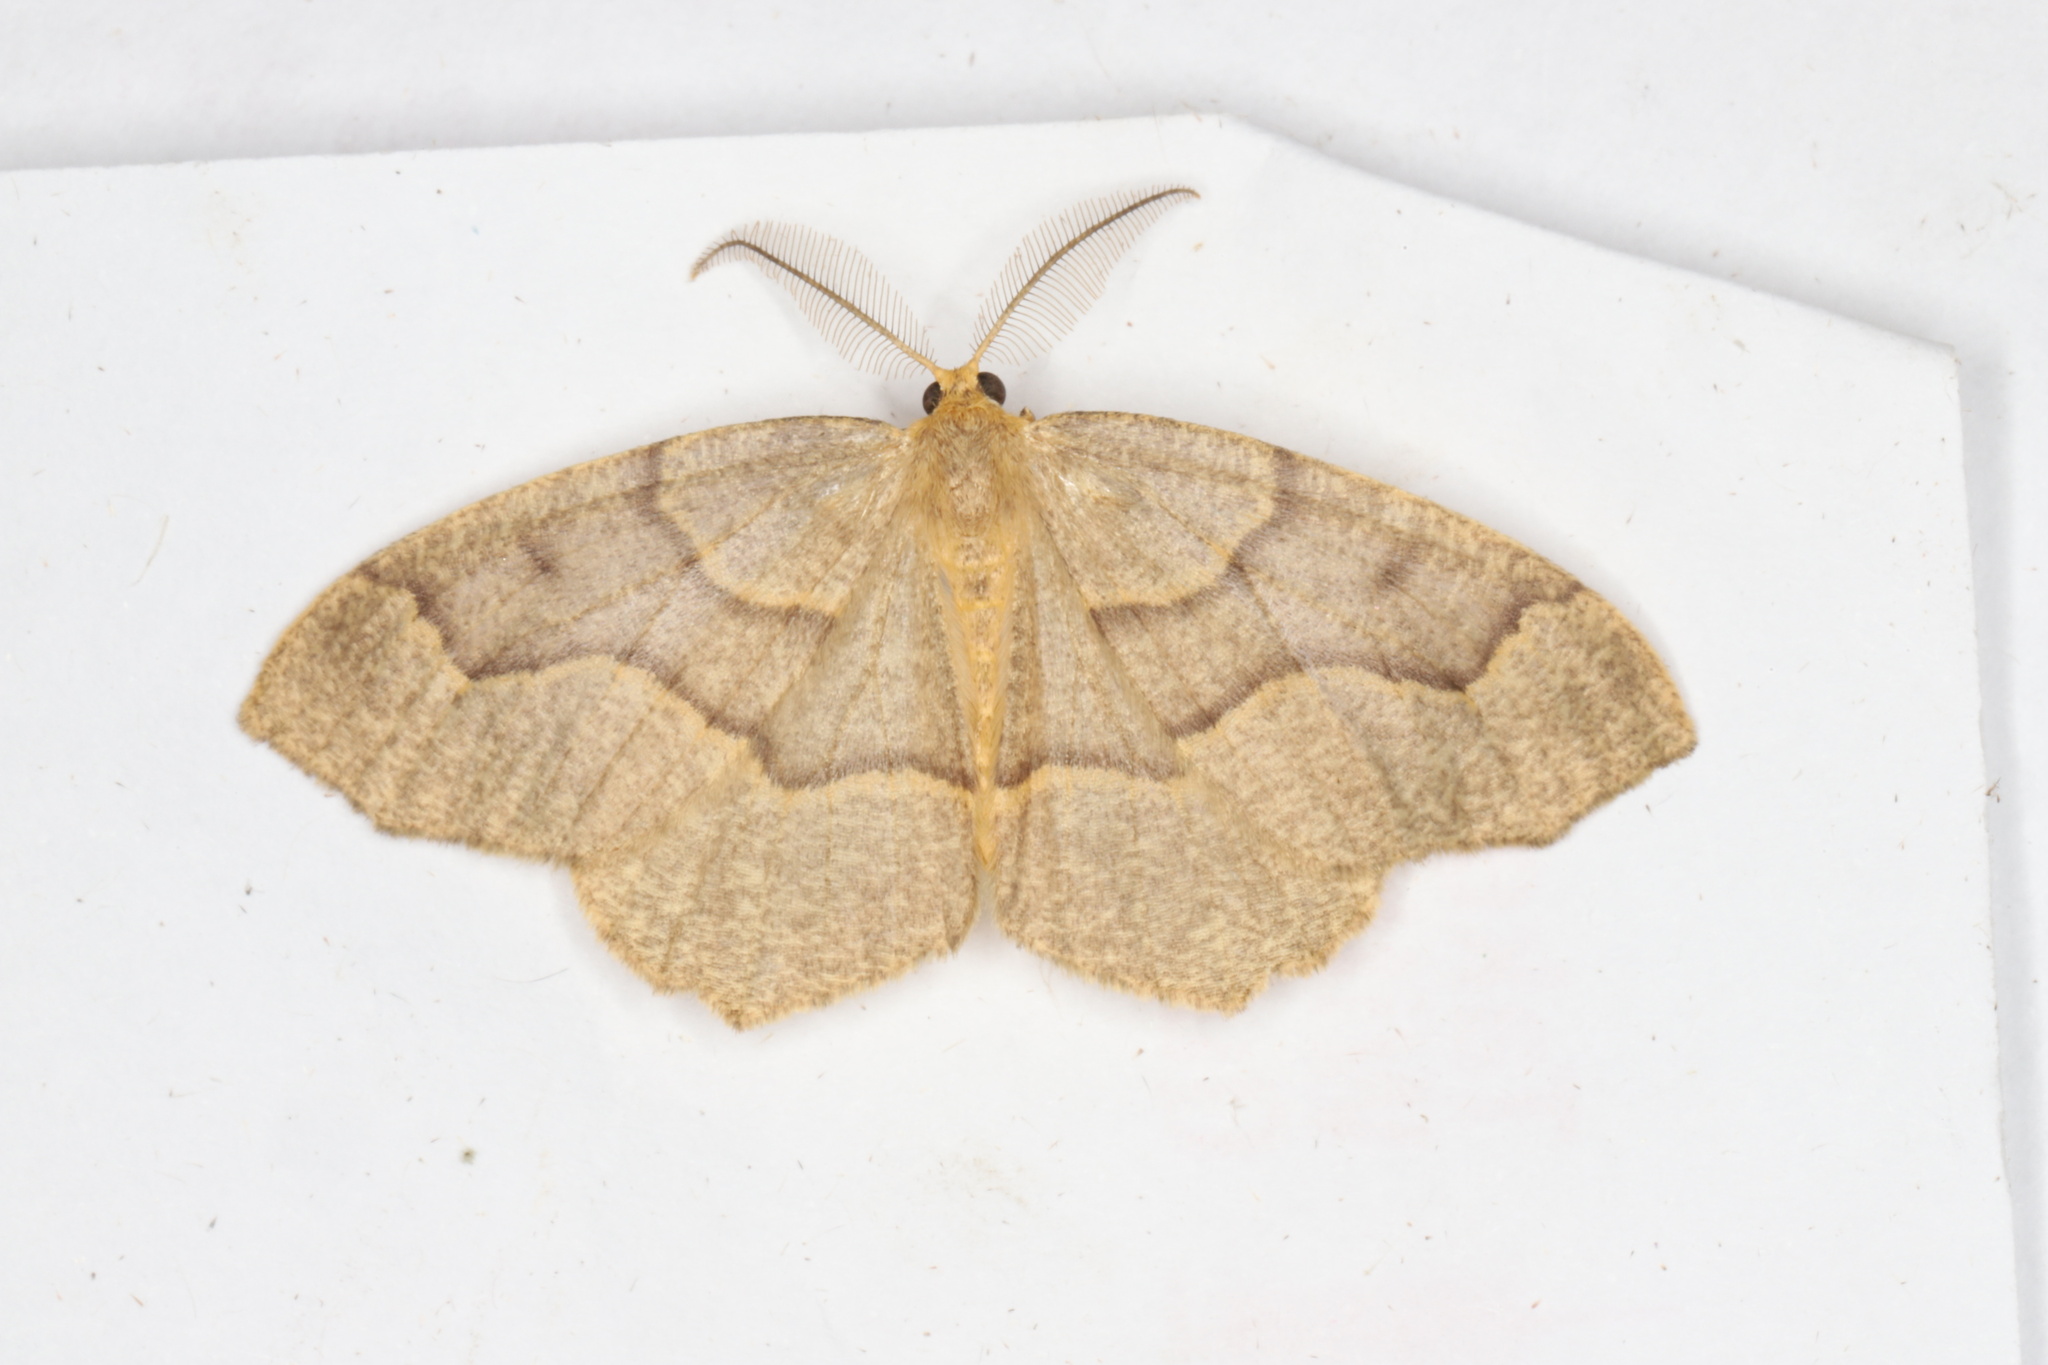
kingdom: Animalia
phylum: Arthropoda
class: Insecta
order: Lepidoptera
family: Geometridae
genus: Lambdina
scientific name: Lambdina fiscellaria
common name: Hemlock looper
